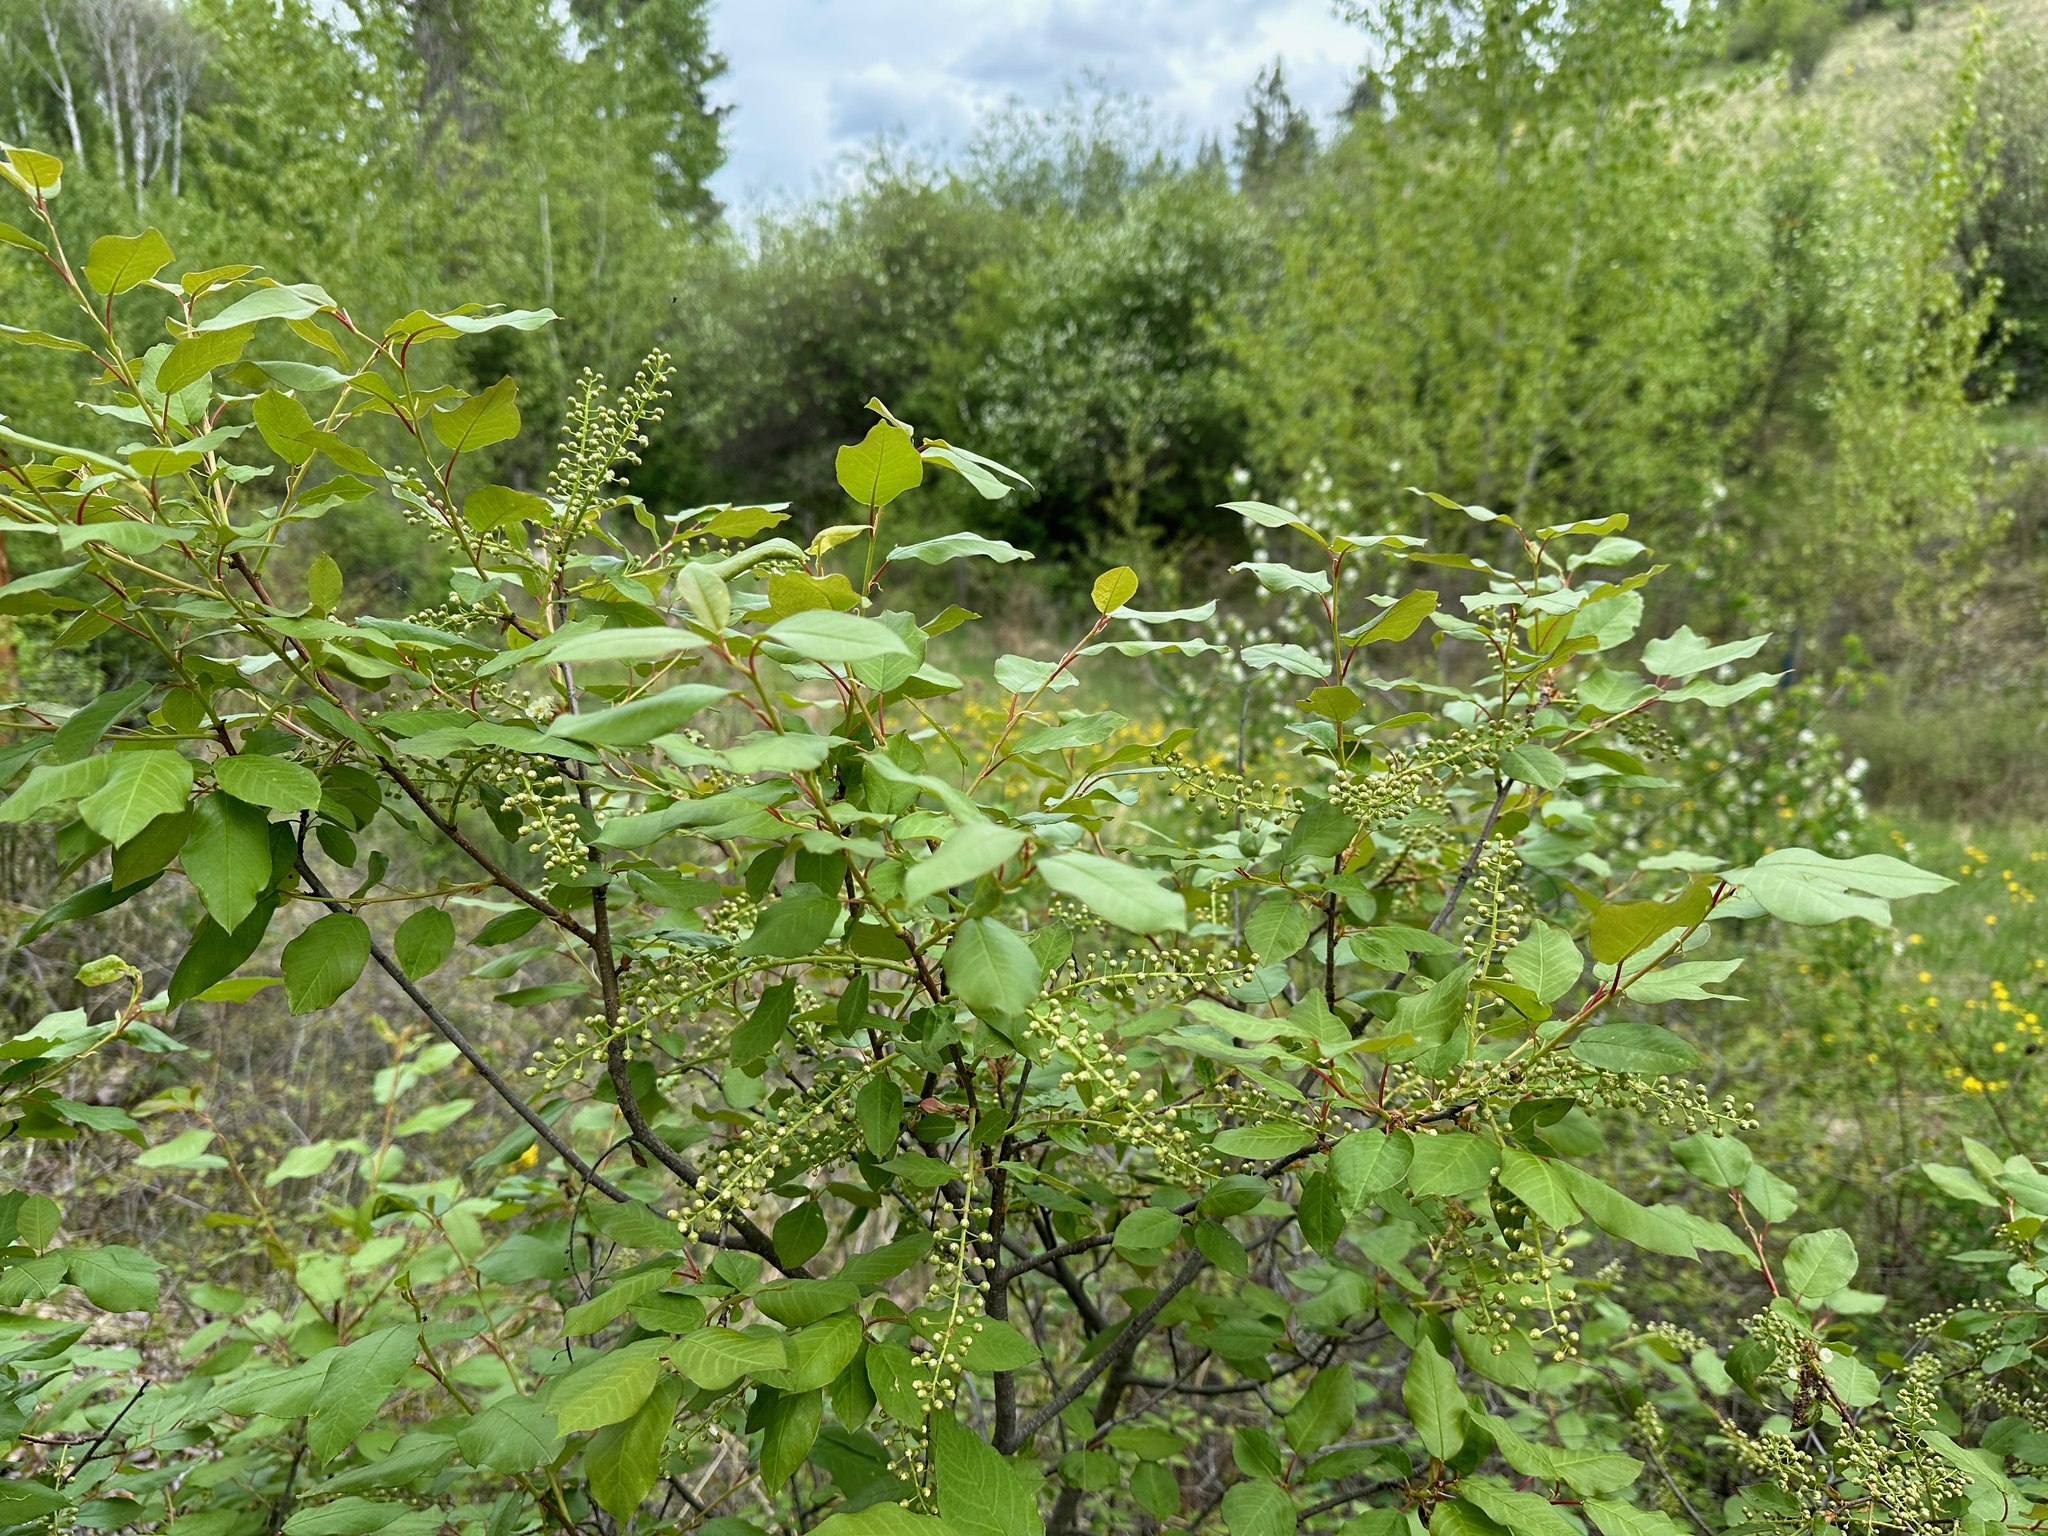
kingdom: Plantae
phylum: Tracheophyta
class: Magnoliopsida
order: Rosales
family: Rosaceae
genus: Prunus
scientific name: Prunus virginiana
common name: Chokecherry
